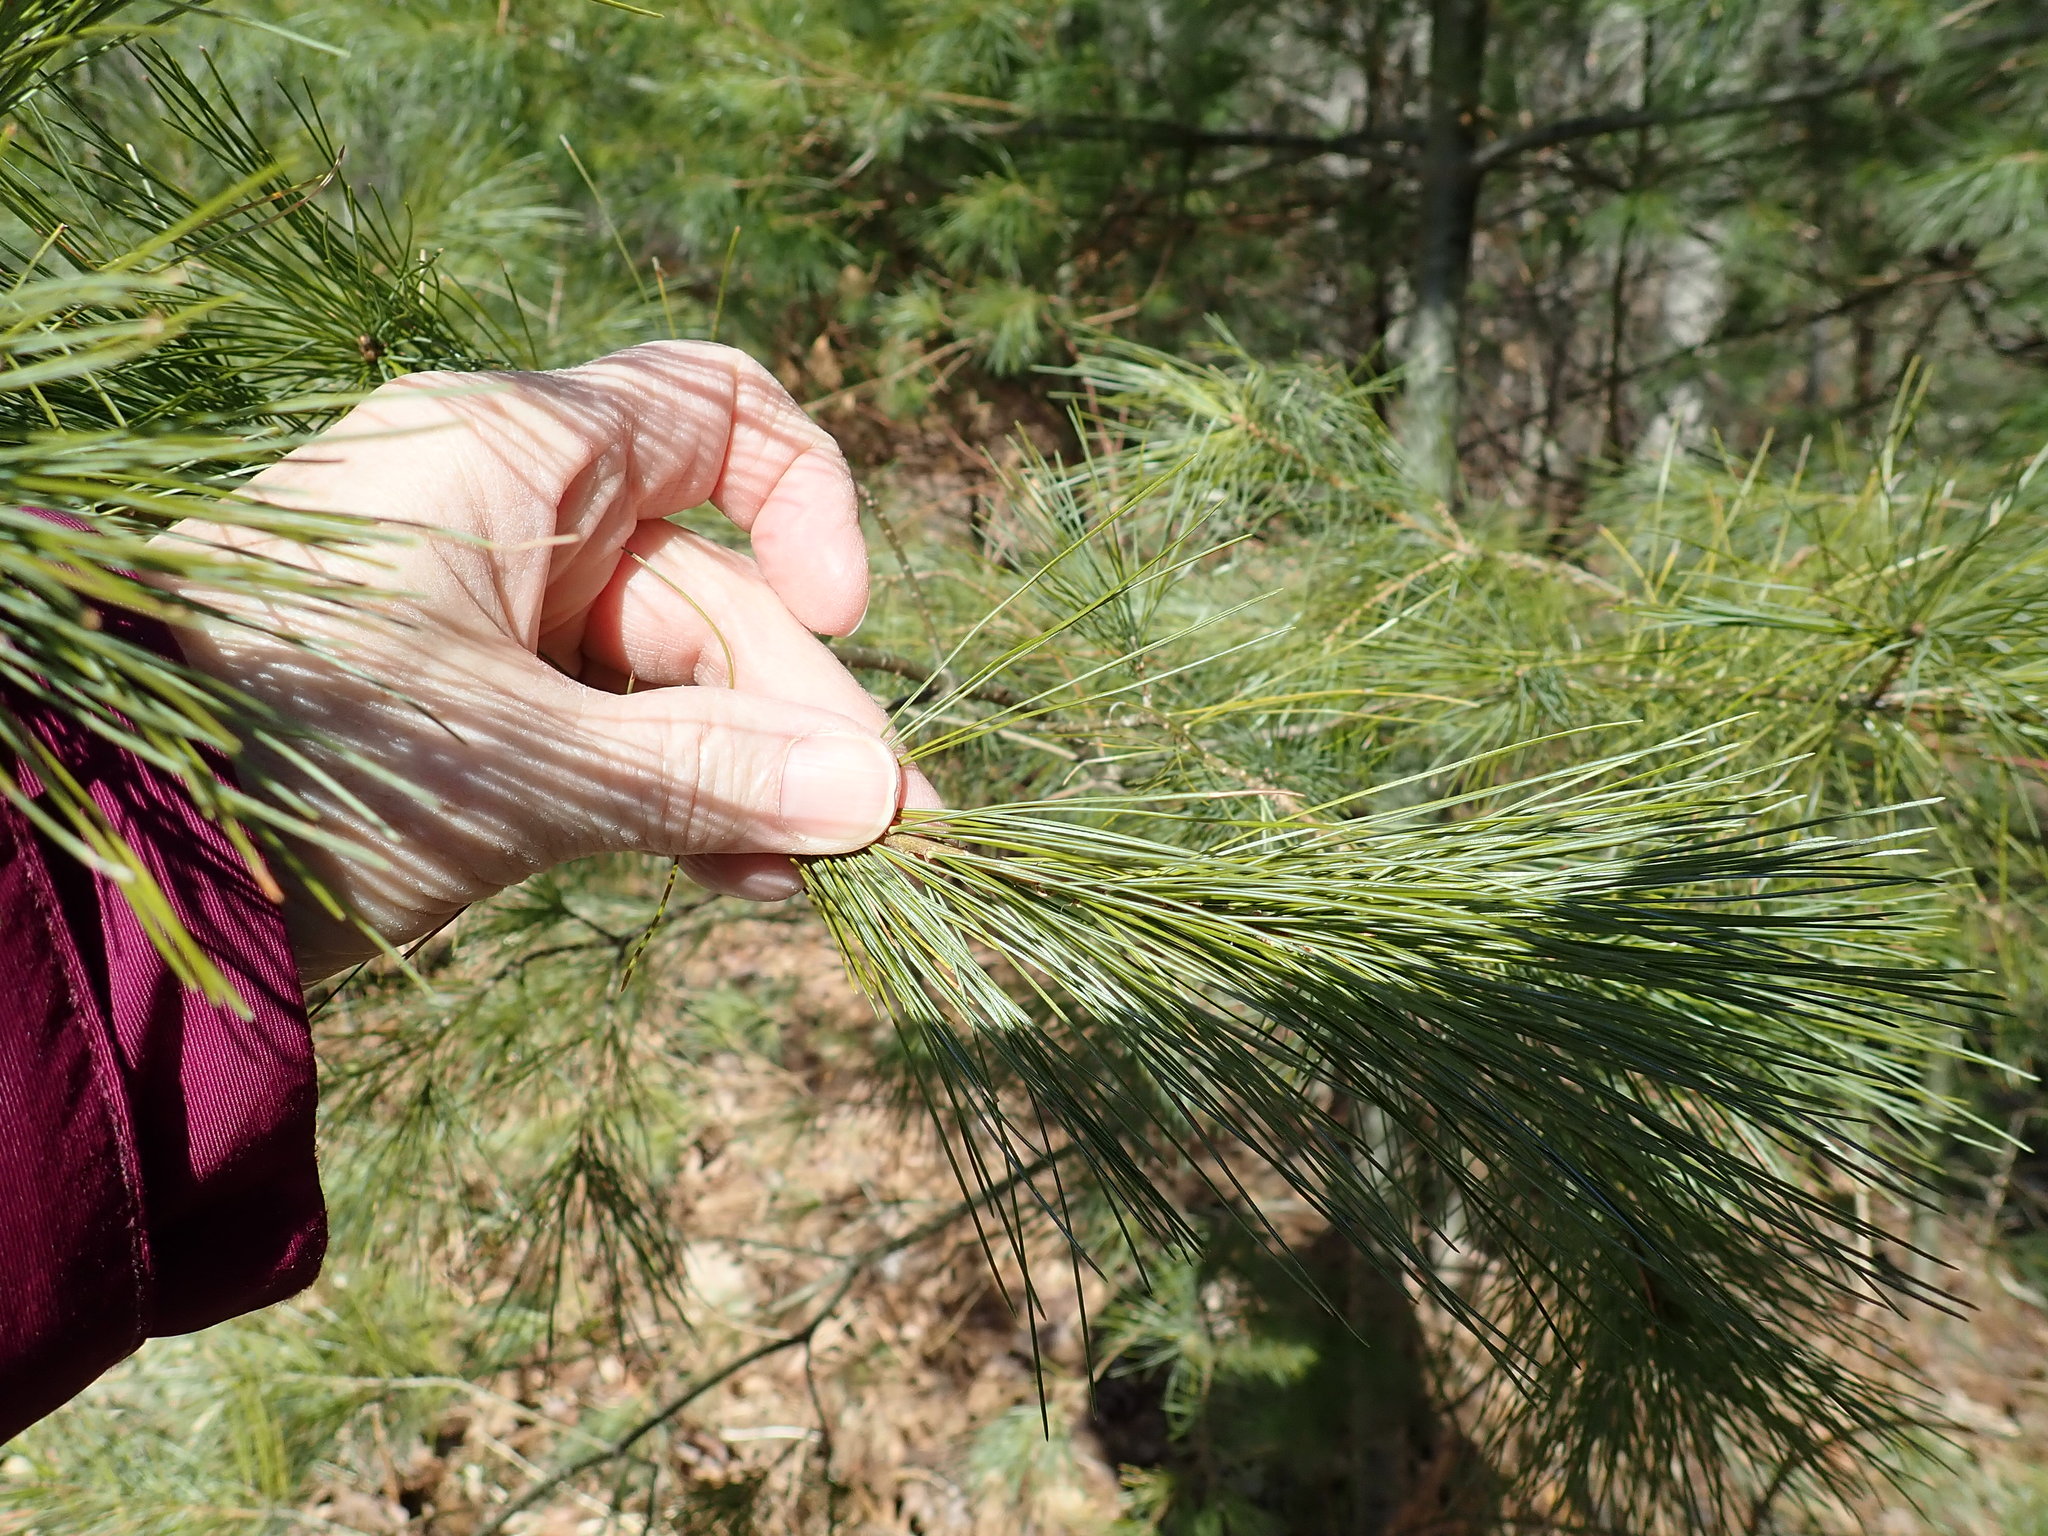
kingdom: Plantae
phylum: Tracheophyta
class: Pinopsida
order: Pinales
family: Pinaceae
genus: Pinus
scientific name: Pinus strobus
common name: Weymouth pine
